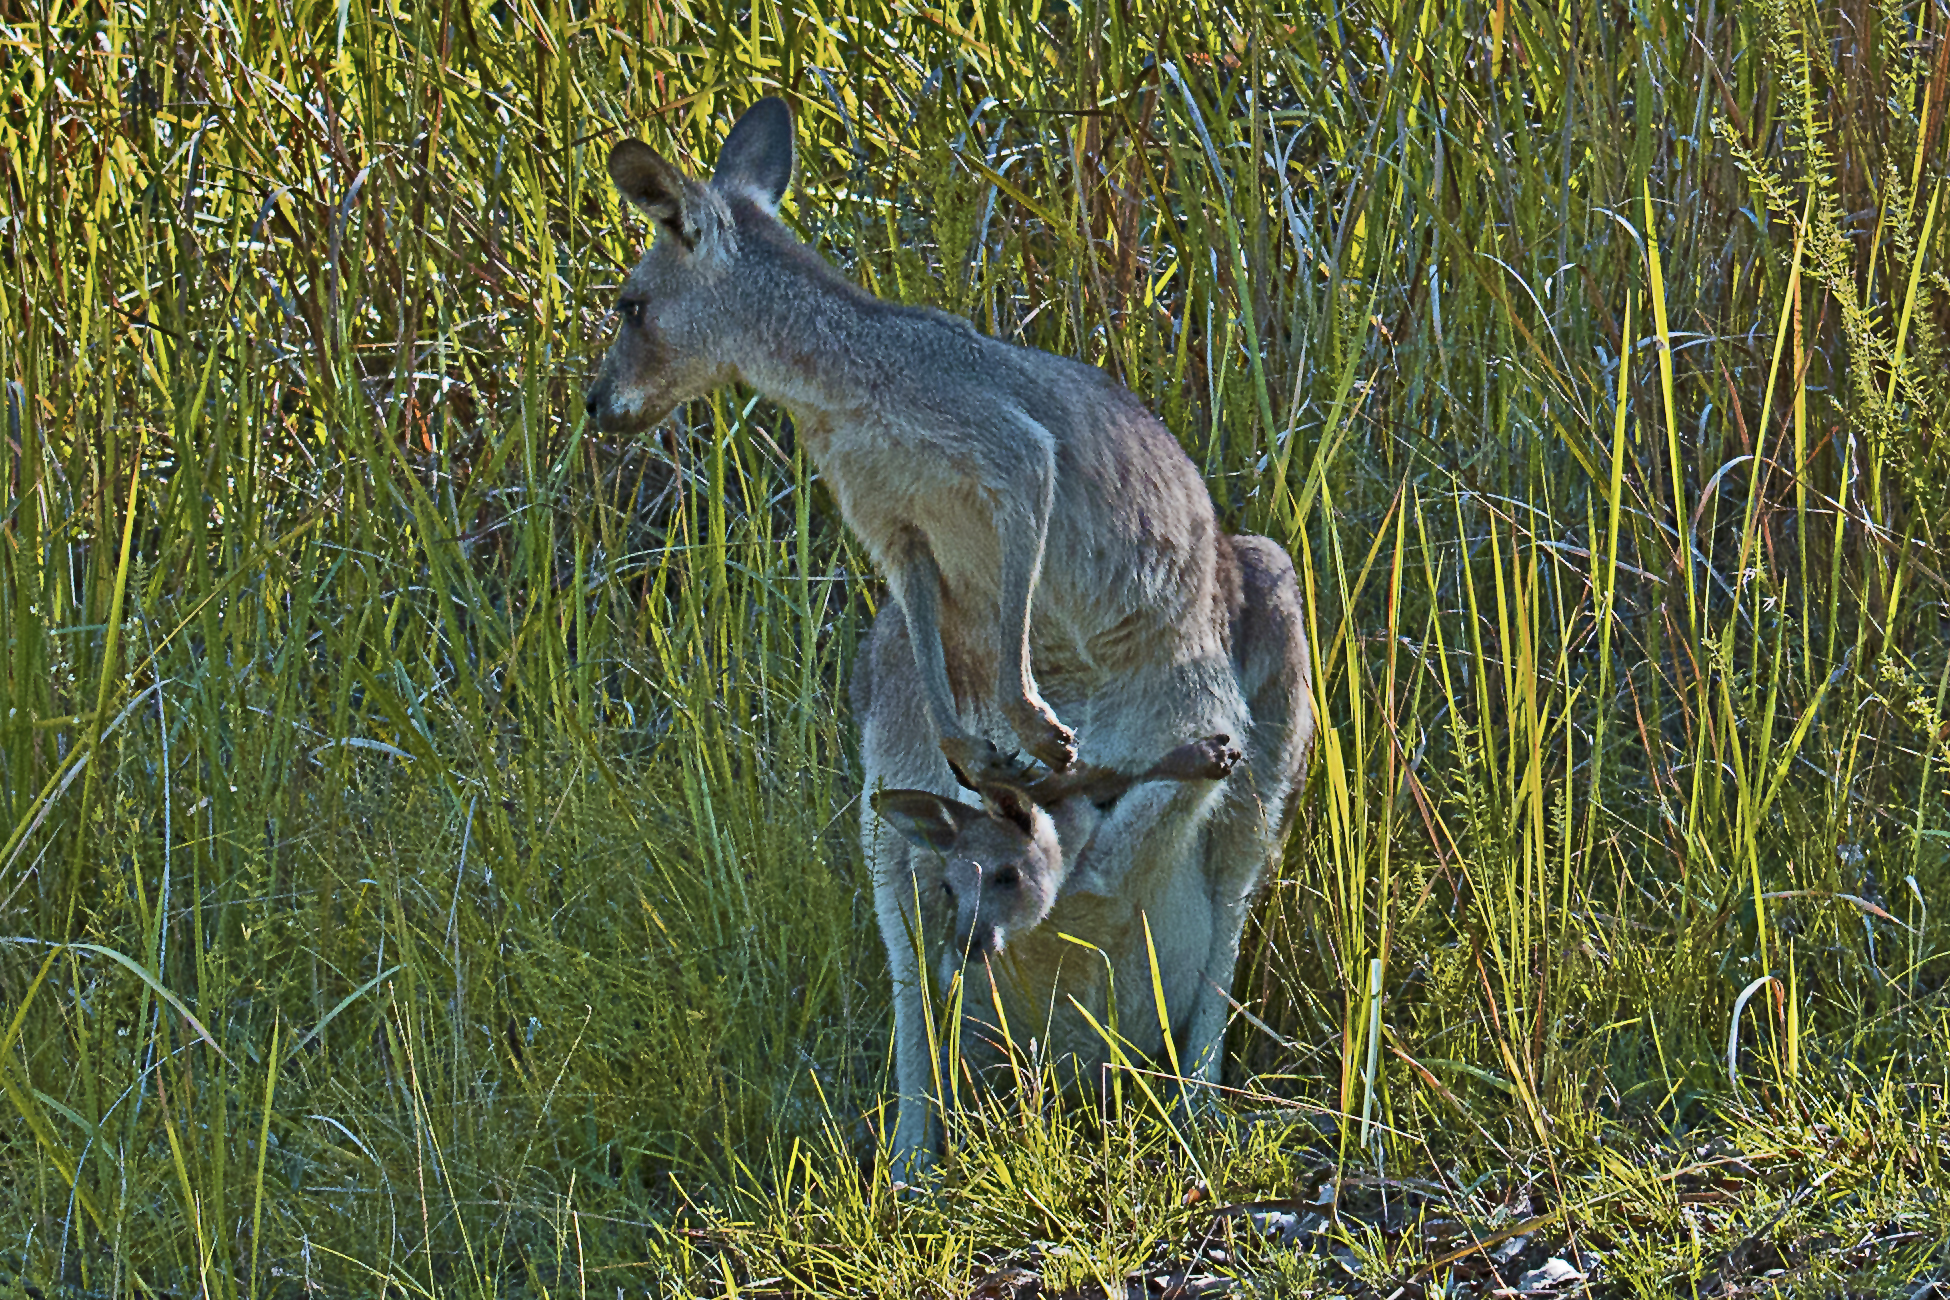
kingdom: Animalia
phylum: Chordata
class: Mammalia
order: Diprotodontia
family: Macropodidae
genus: Macropus
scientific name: Macropus giganteus
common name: Eastern grey kangaroo
